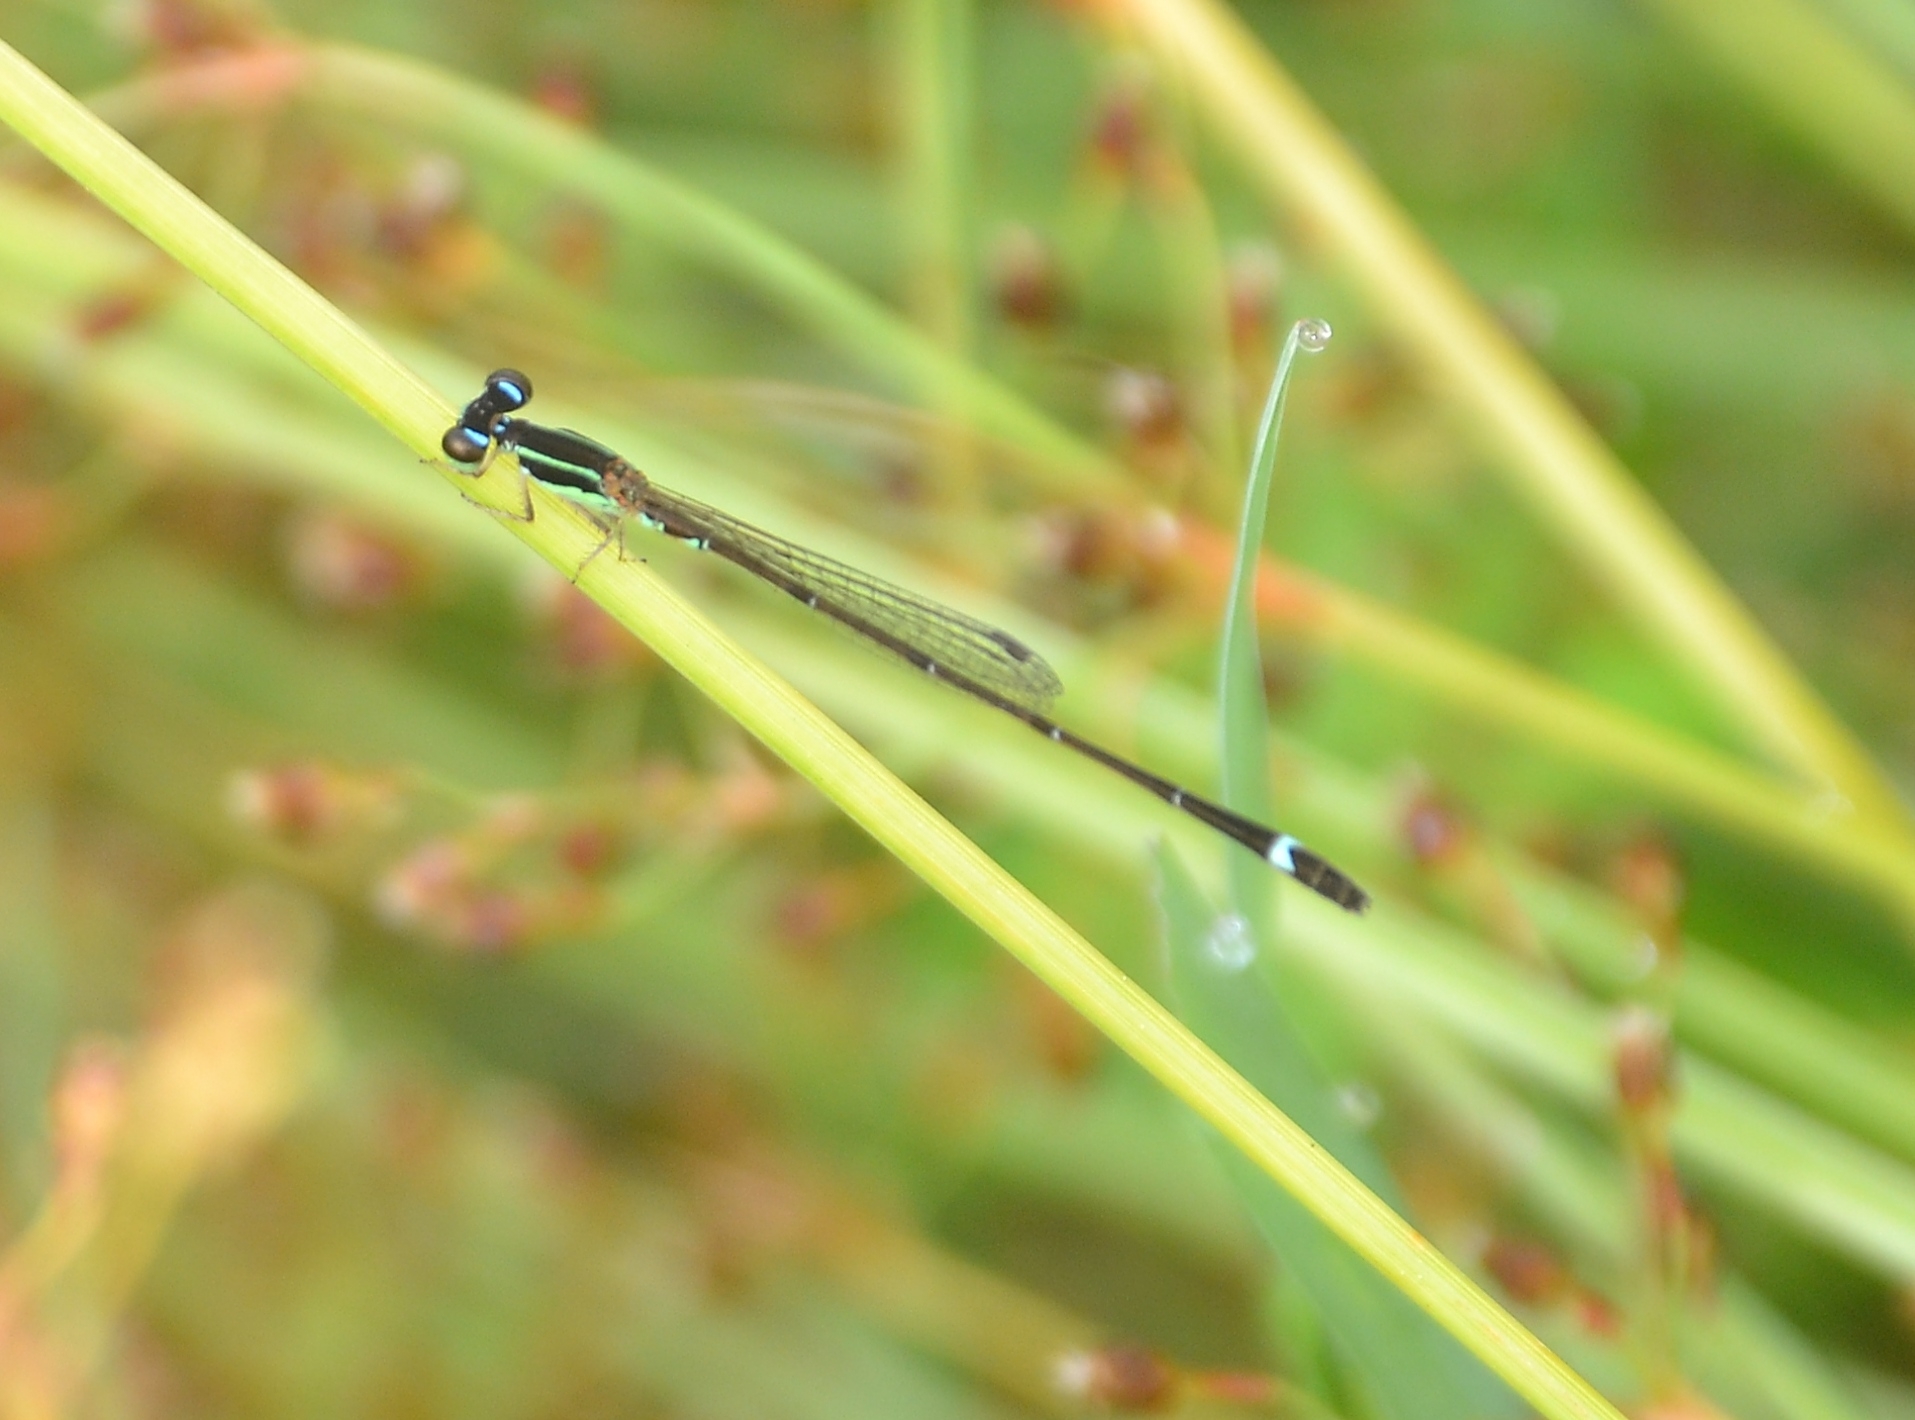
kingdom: Animalia
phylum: Arthropoda
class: Insecta
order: Odonata
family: Coenagrionidae
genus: Mortonagrion
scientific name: Mortonagrion varralli
